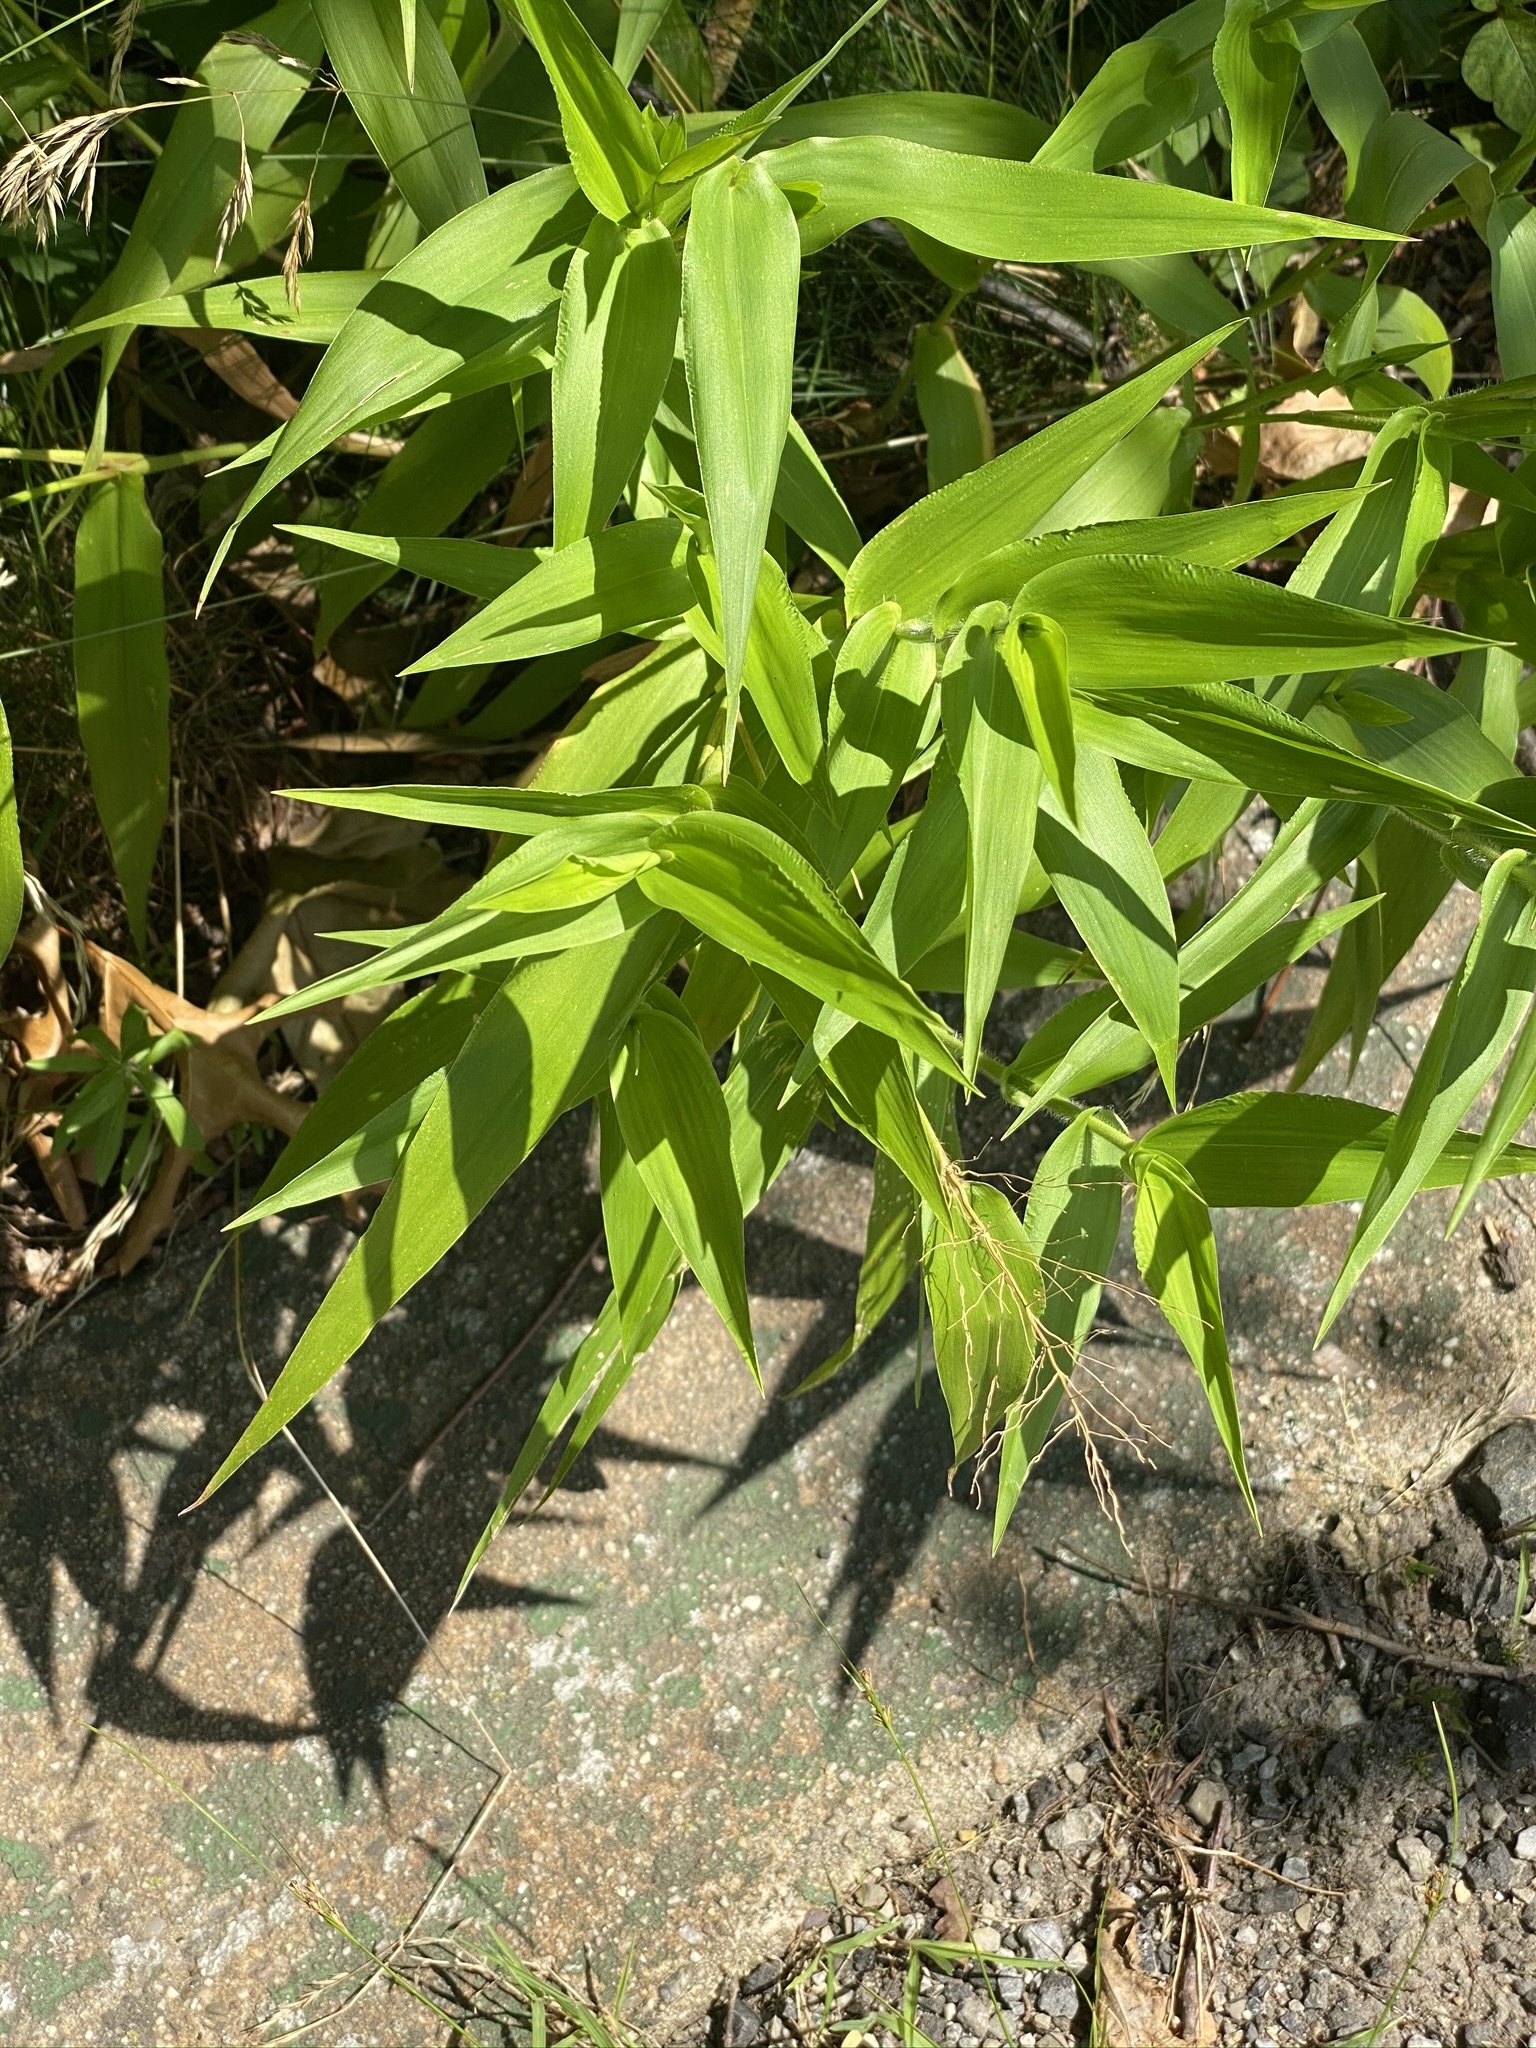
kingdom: Plantae
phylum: Tracheophyta
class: Liliopsida
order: Poales
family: Poaceae
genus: Dichanthelium
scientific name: Dichanthelium clandestinum
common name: Deer-tongue grass
